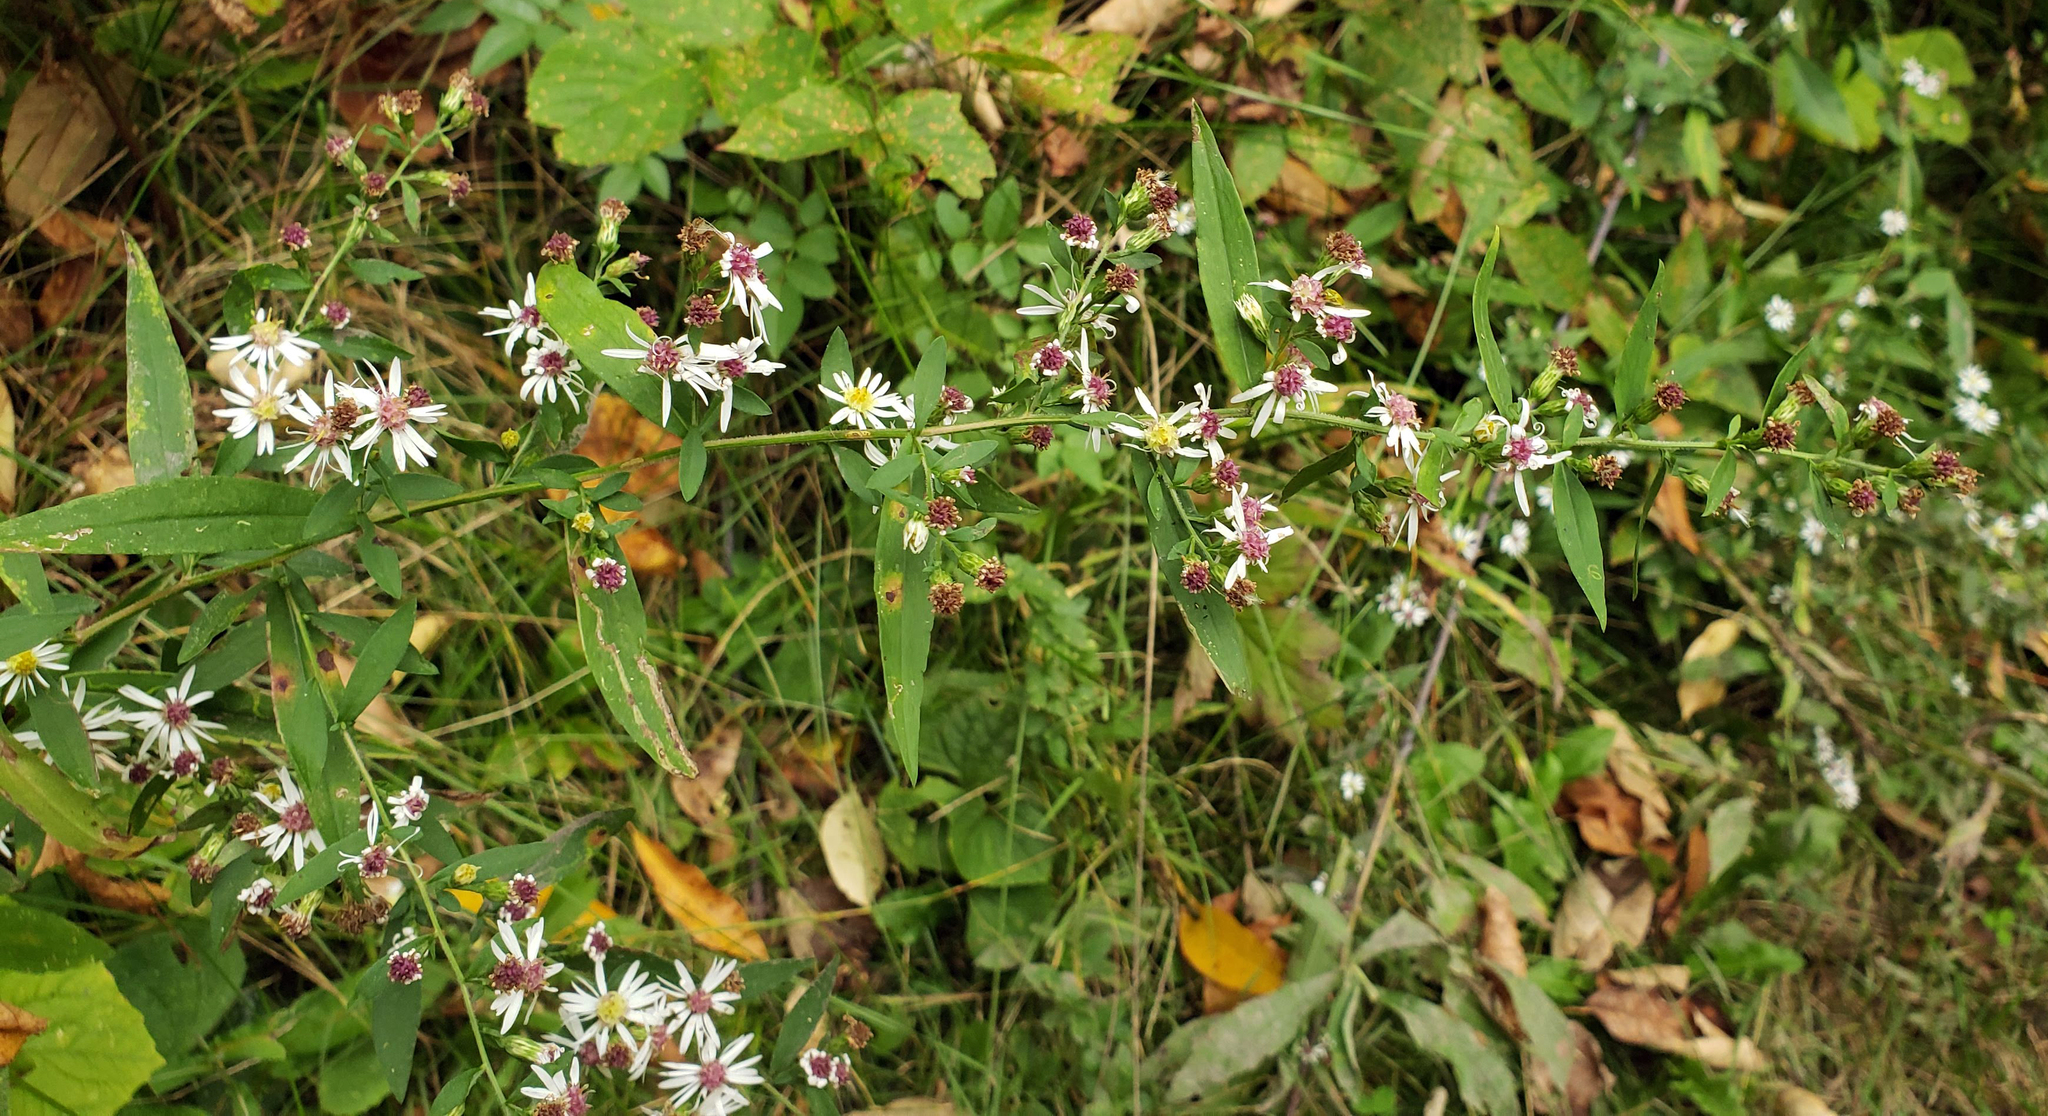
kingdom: Plantae
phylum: Tracheophyta
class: Magnoliopsida
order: Asterales
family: Asteraceae
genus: Symphyotrichum
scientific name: Symphyotrichum lateriflorum
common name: Calico aster
